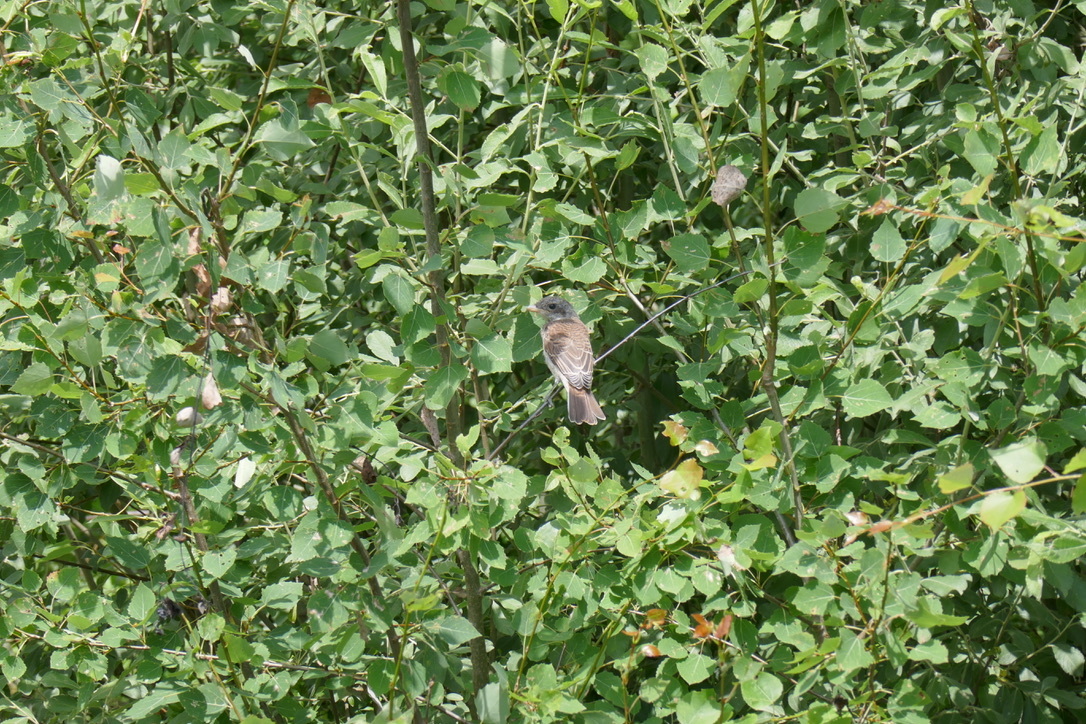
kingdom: Animalia
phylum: Chordata
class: Aves
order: Passeriformes
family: Laniidae
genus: Lanius
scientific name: Lanius collurio
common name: Red-backed shrike
